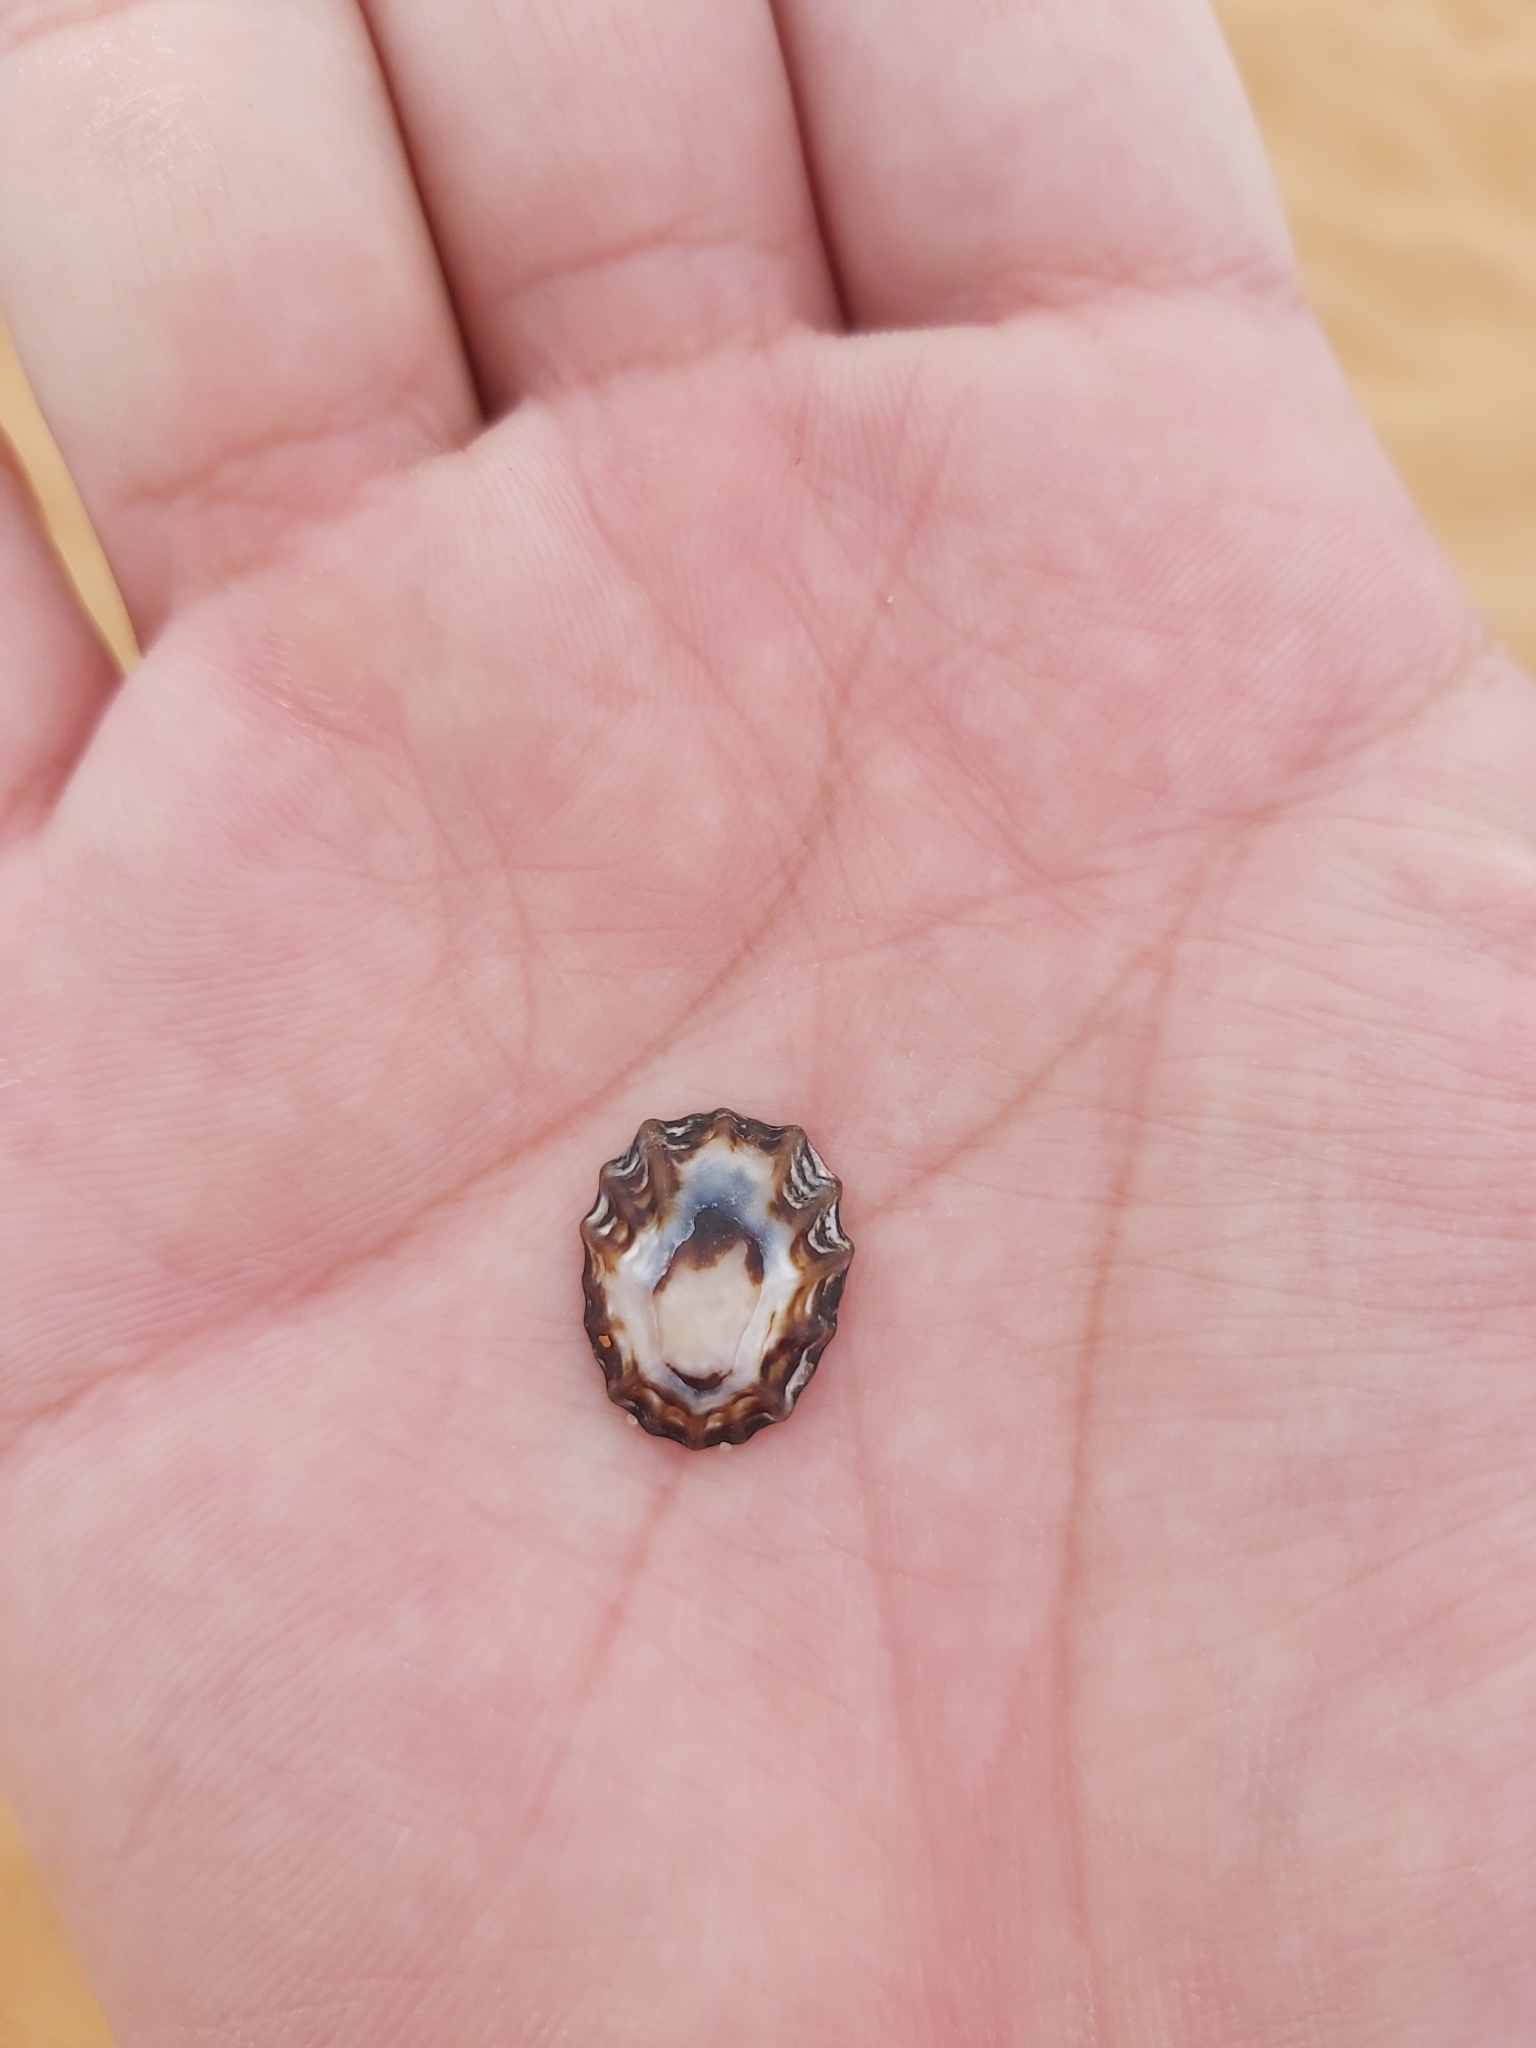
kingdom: Animalia
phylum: Mollusca
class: Gastropoda
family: Lottiidae
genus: Patelloida
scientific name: Patelloida alticostata
